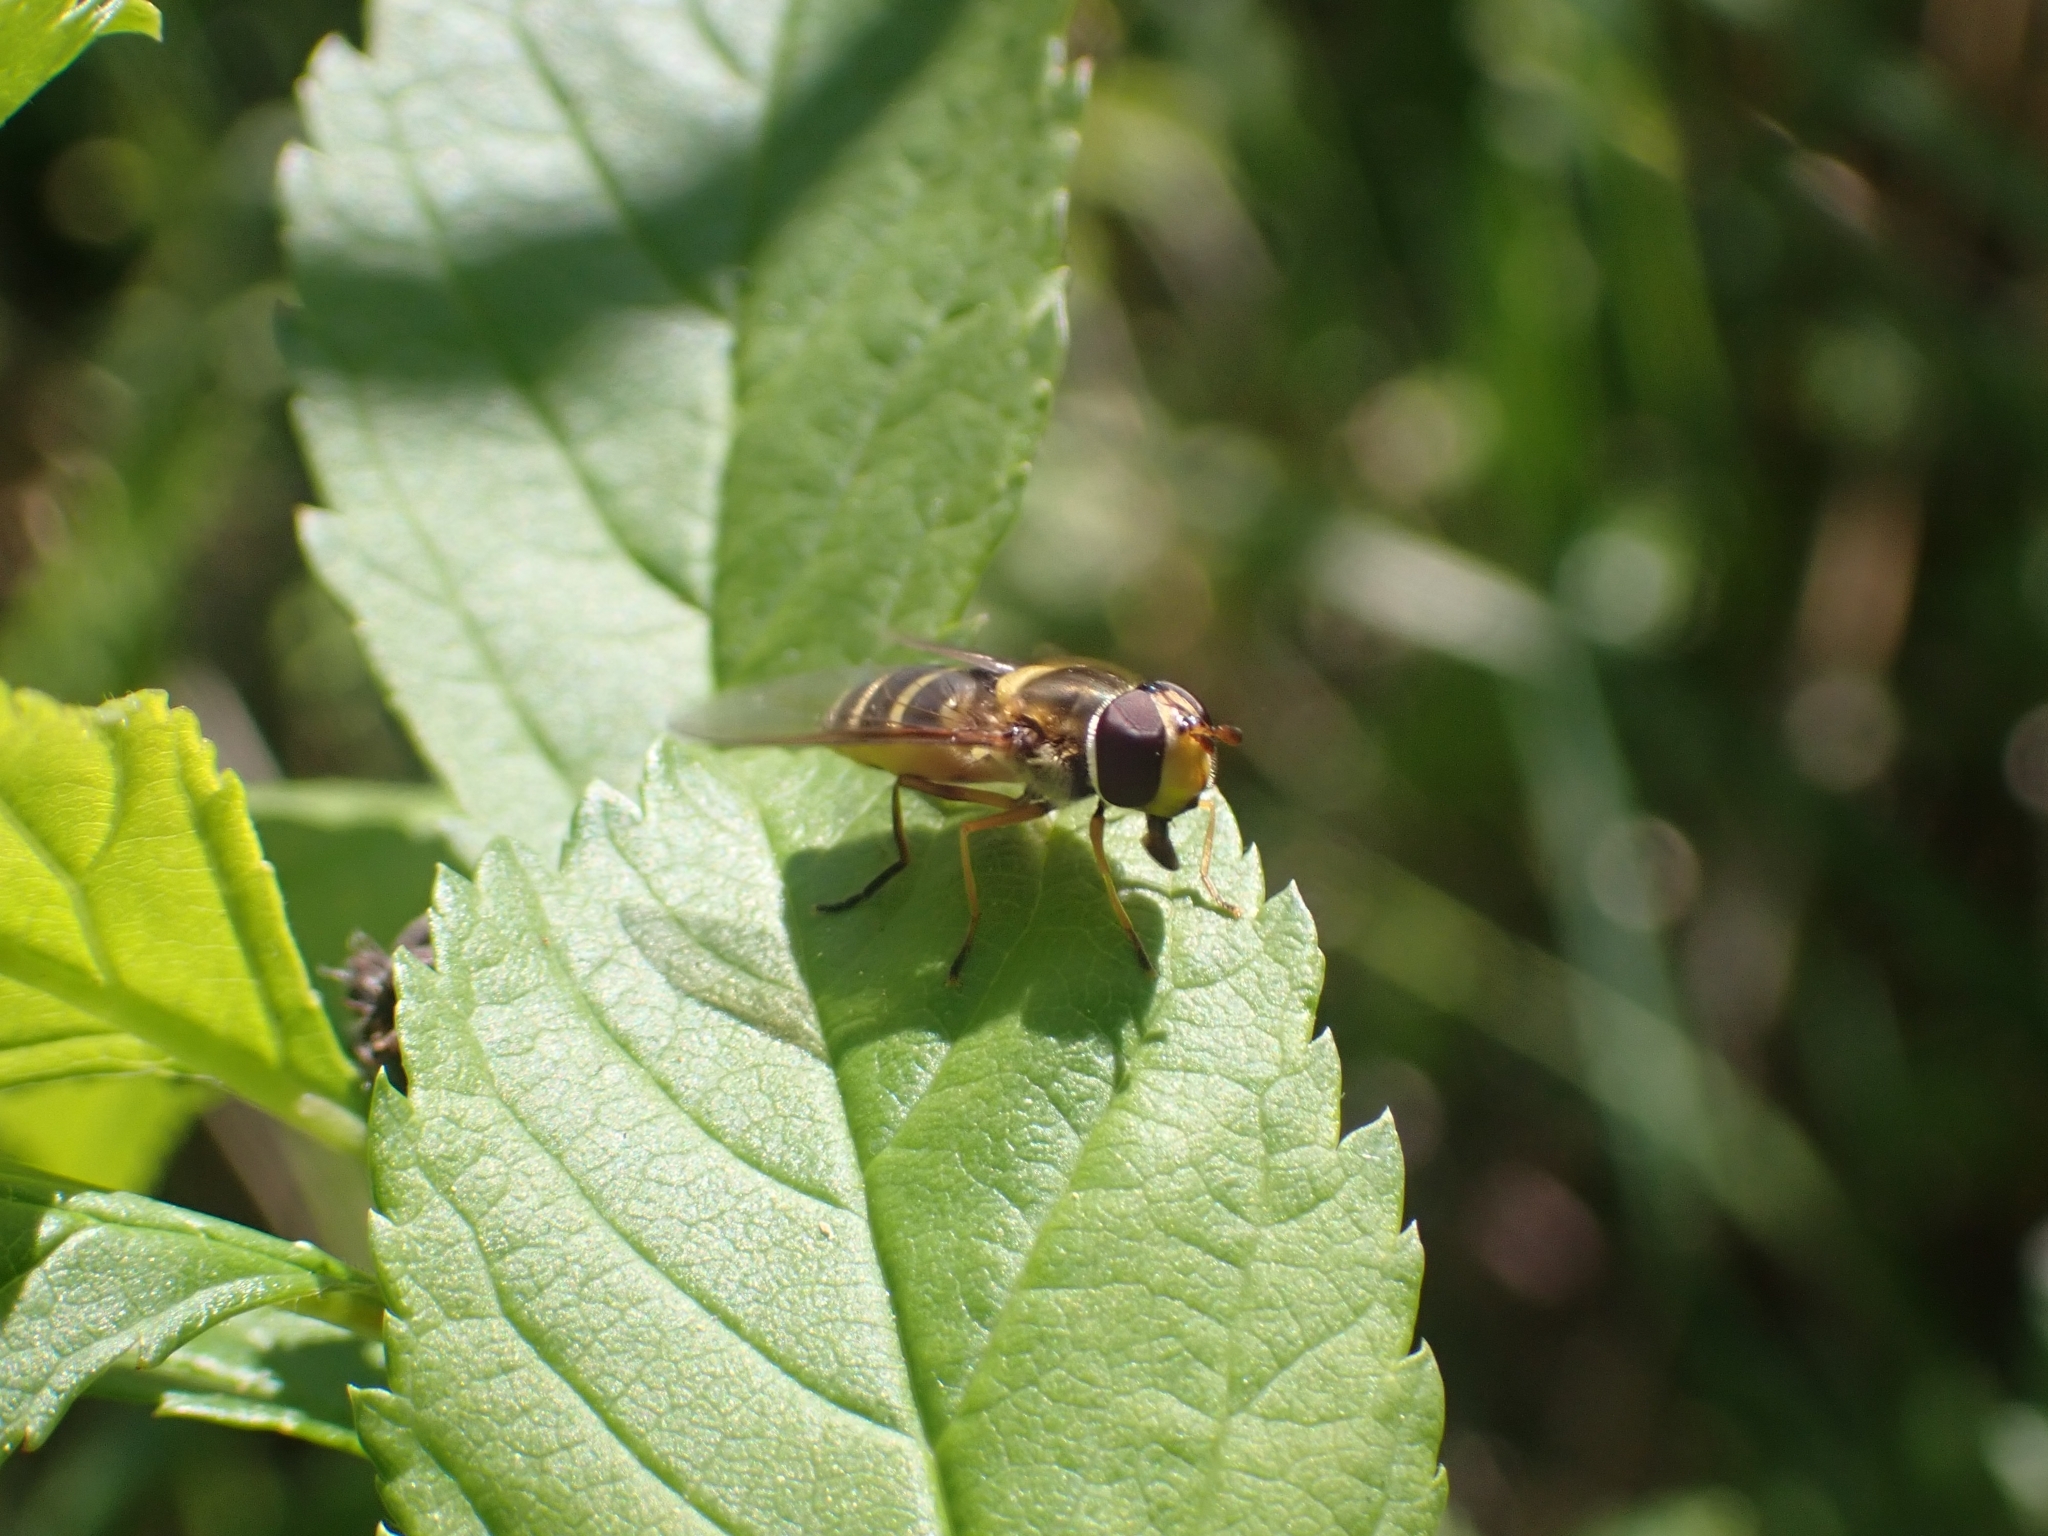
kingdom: Animalia
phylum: Arthropoda
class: Insecta
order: Diptera
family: Syrphidae
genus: Syrphus
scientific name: Syrphus ribesii
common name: Common flower fly
